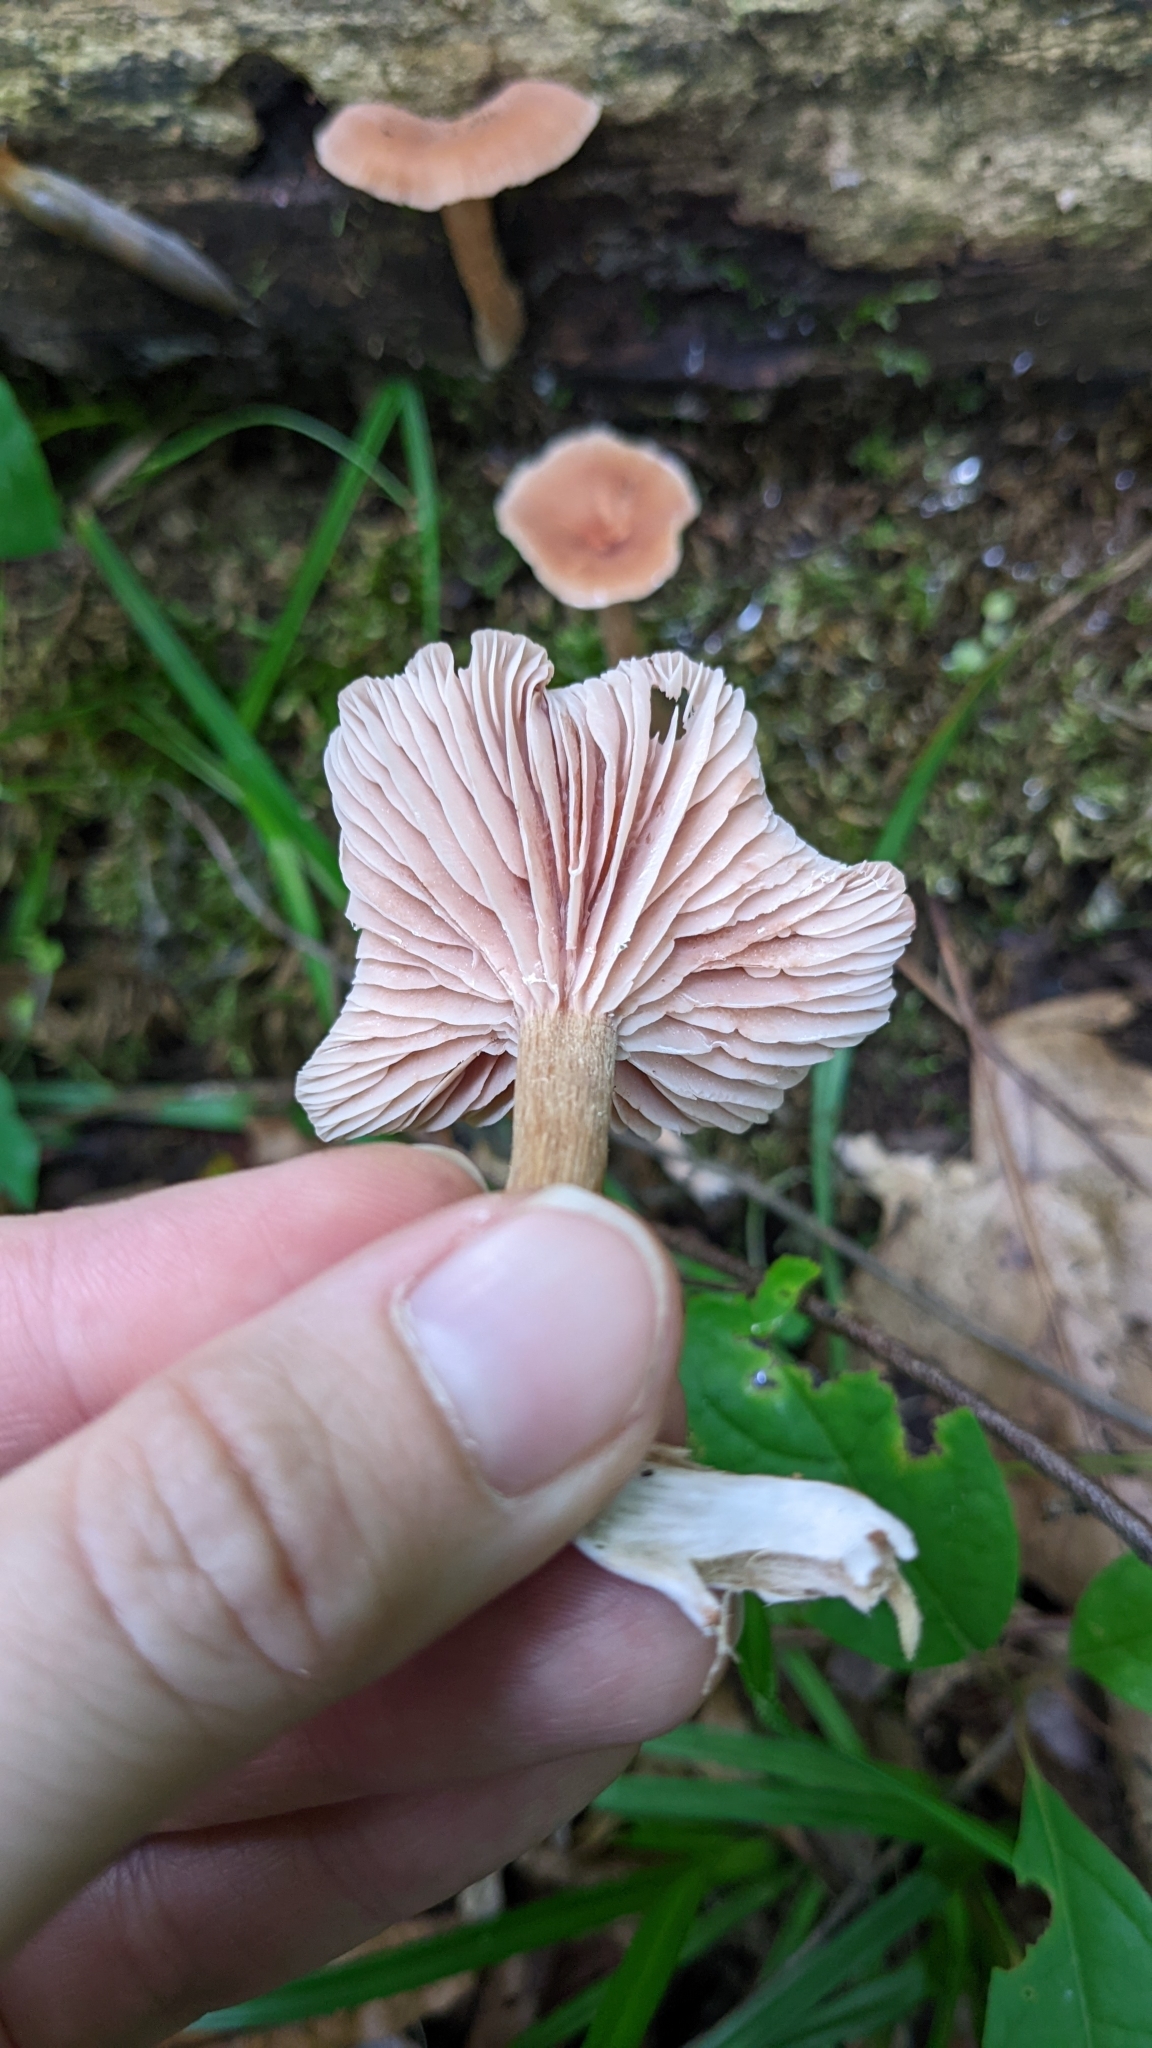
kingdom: Fungi
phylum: Basidiomycota
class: Agaricomycetes
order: Agaricales
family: Hydnangiaceae
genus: Laccaria
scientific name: Laccaria laccata
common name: Deceiver
